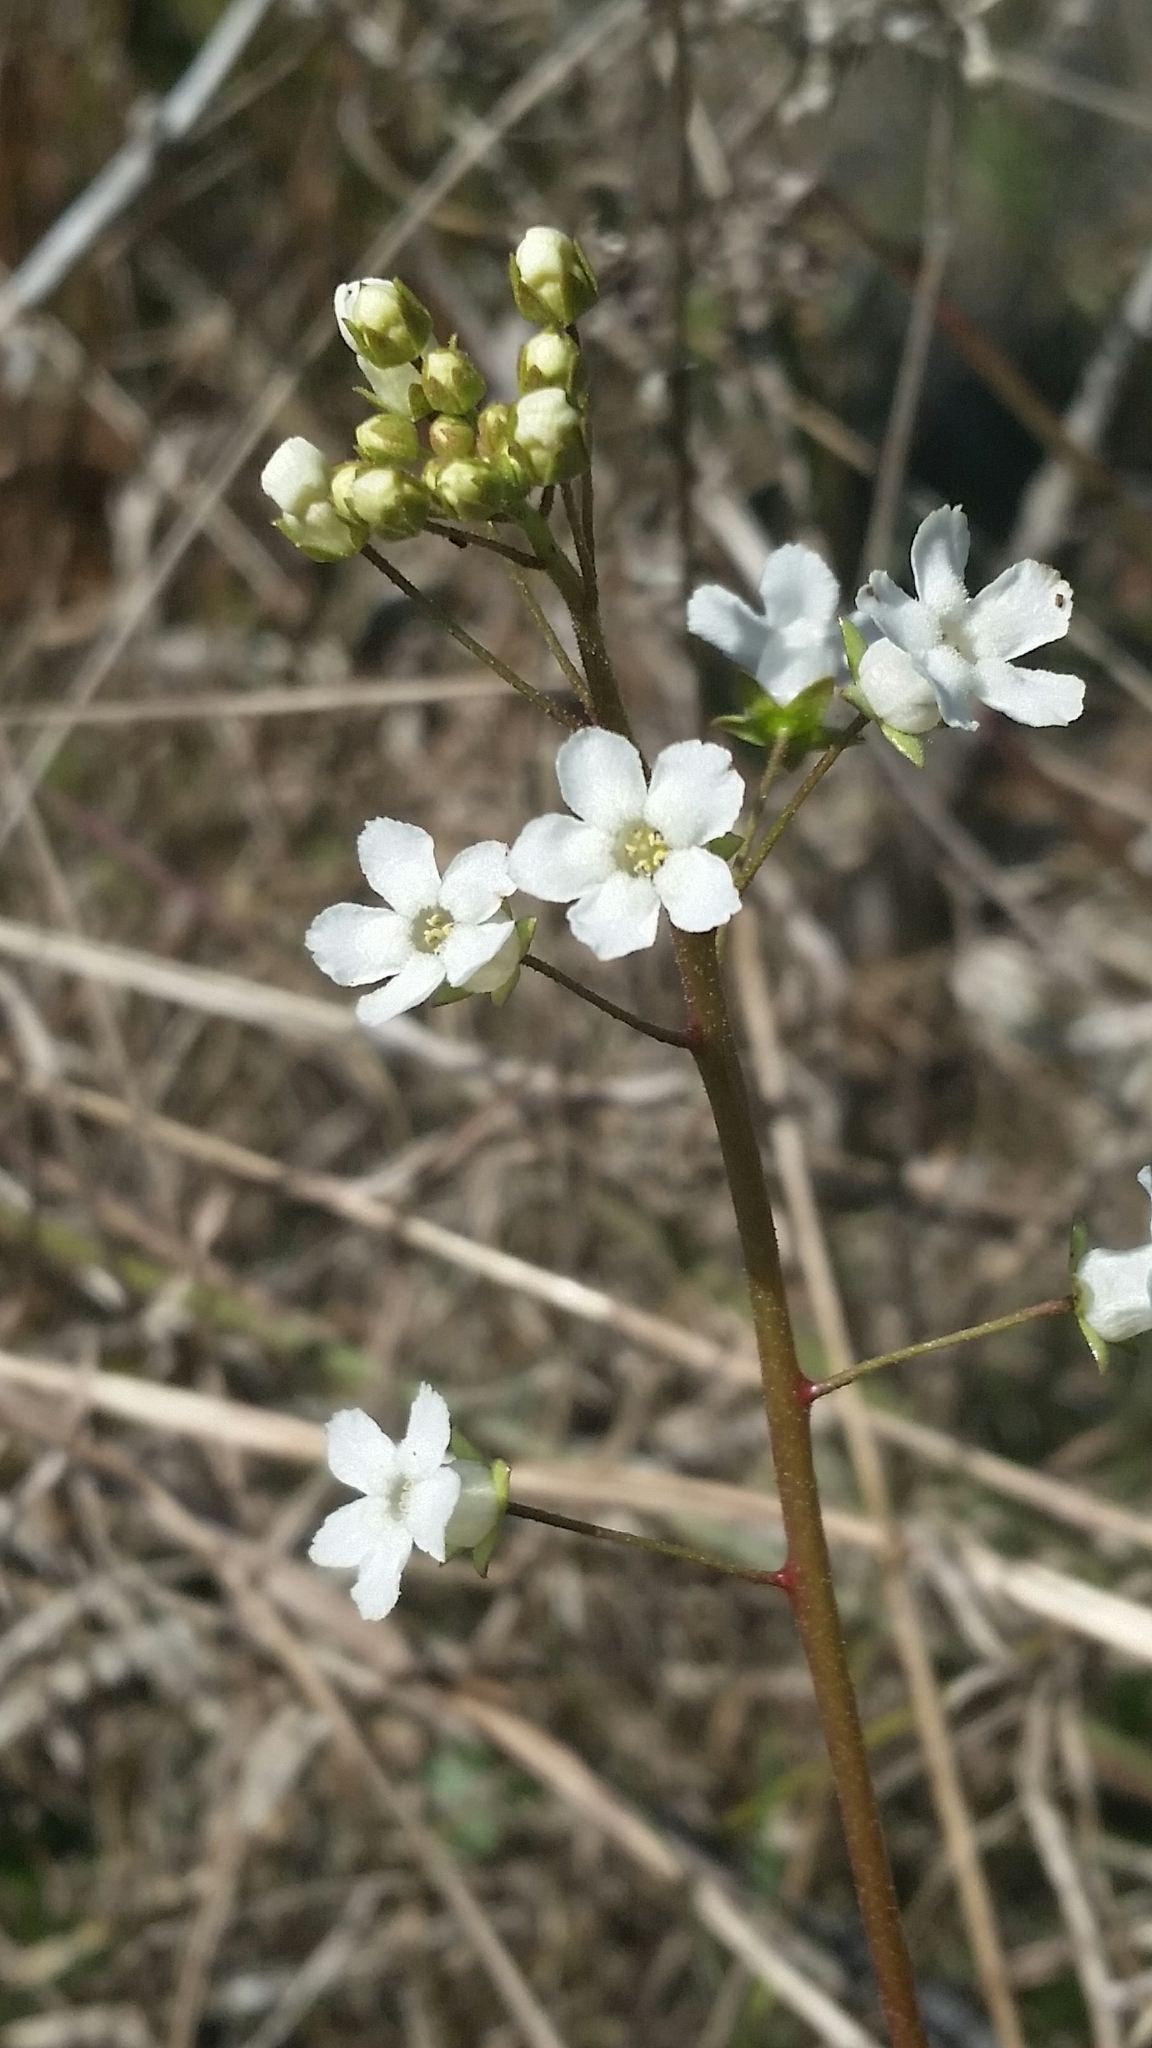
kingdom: Plantae
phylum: Tracheophyta
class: Magnoliopsida
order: Ericales
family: Primulaceae
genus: Samolus
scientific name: Samolus ebracteatus
